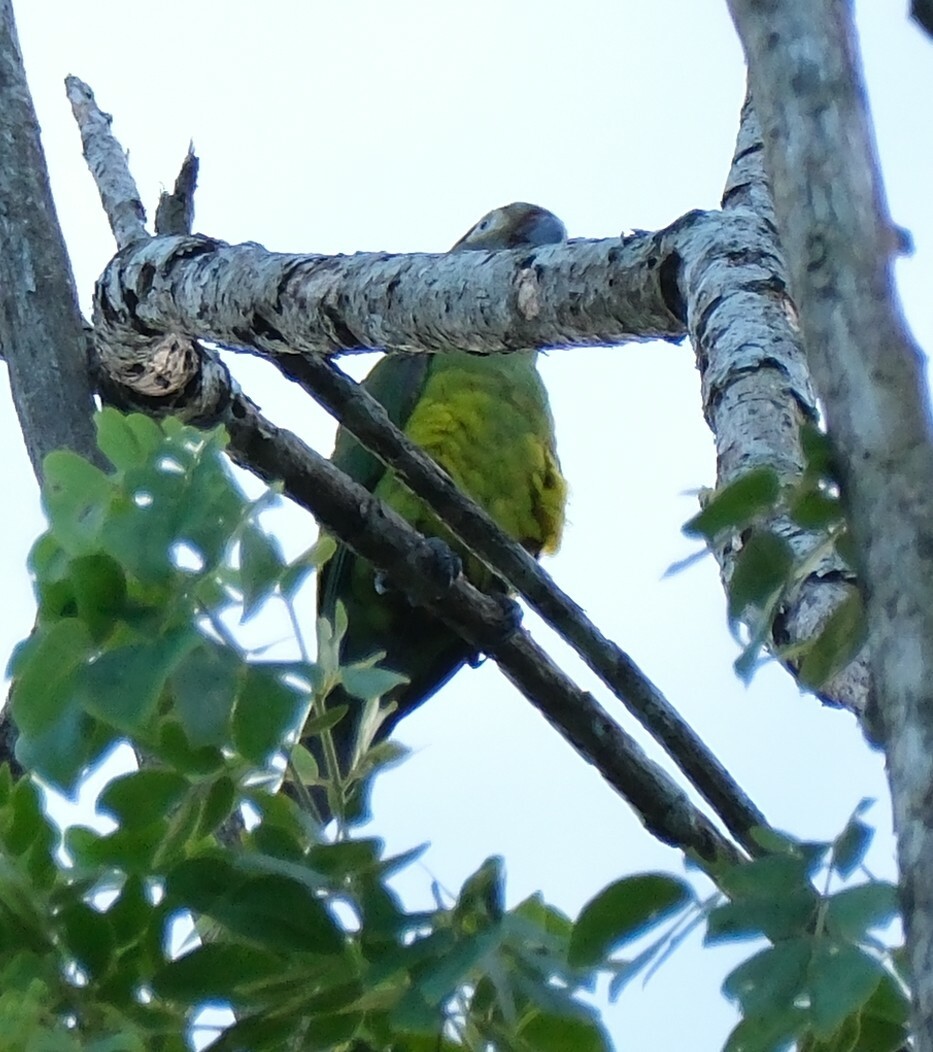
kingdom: Animalia
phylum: Chordata
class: Aves
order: Psittaciformes
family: Psittacidae
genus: Aratinga
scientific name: Aratinga weddellii
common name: Dusky-headed parakeet
